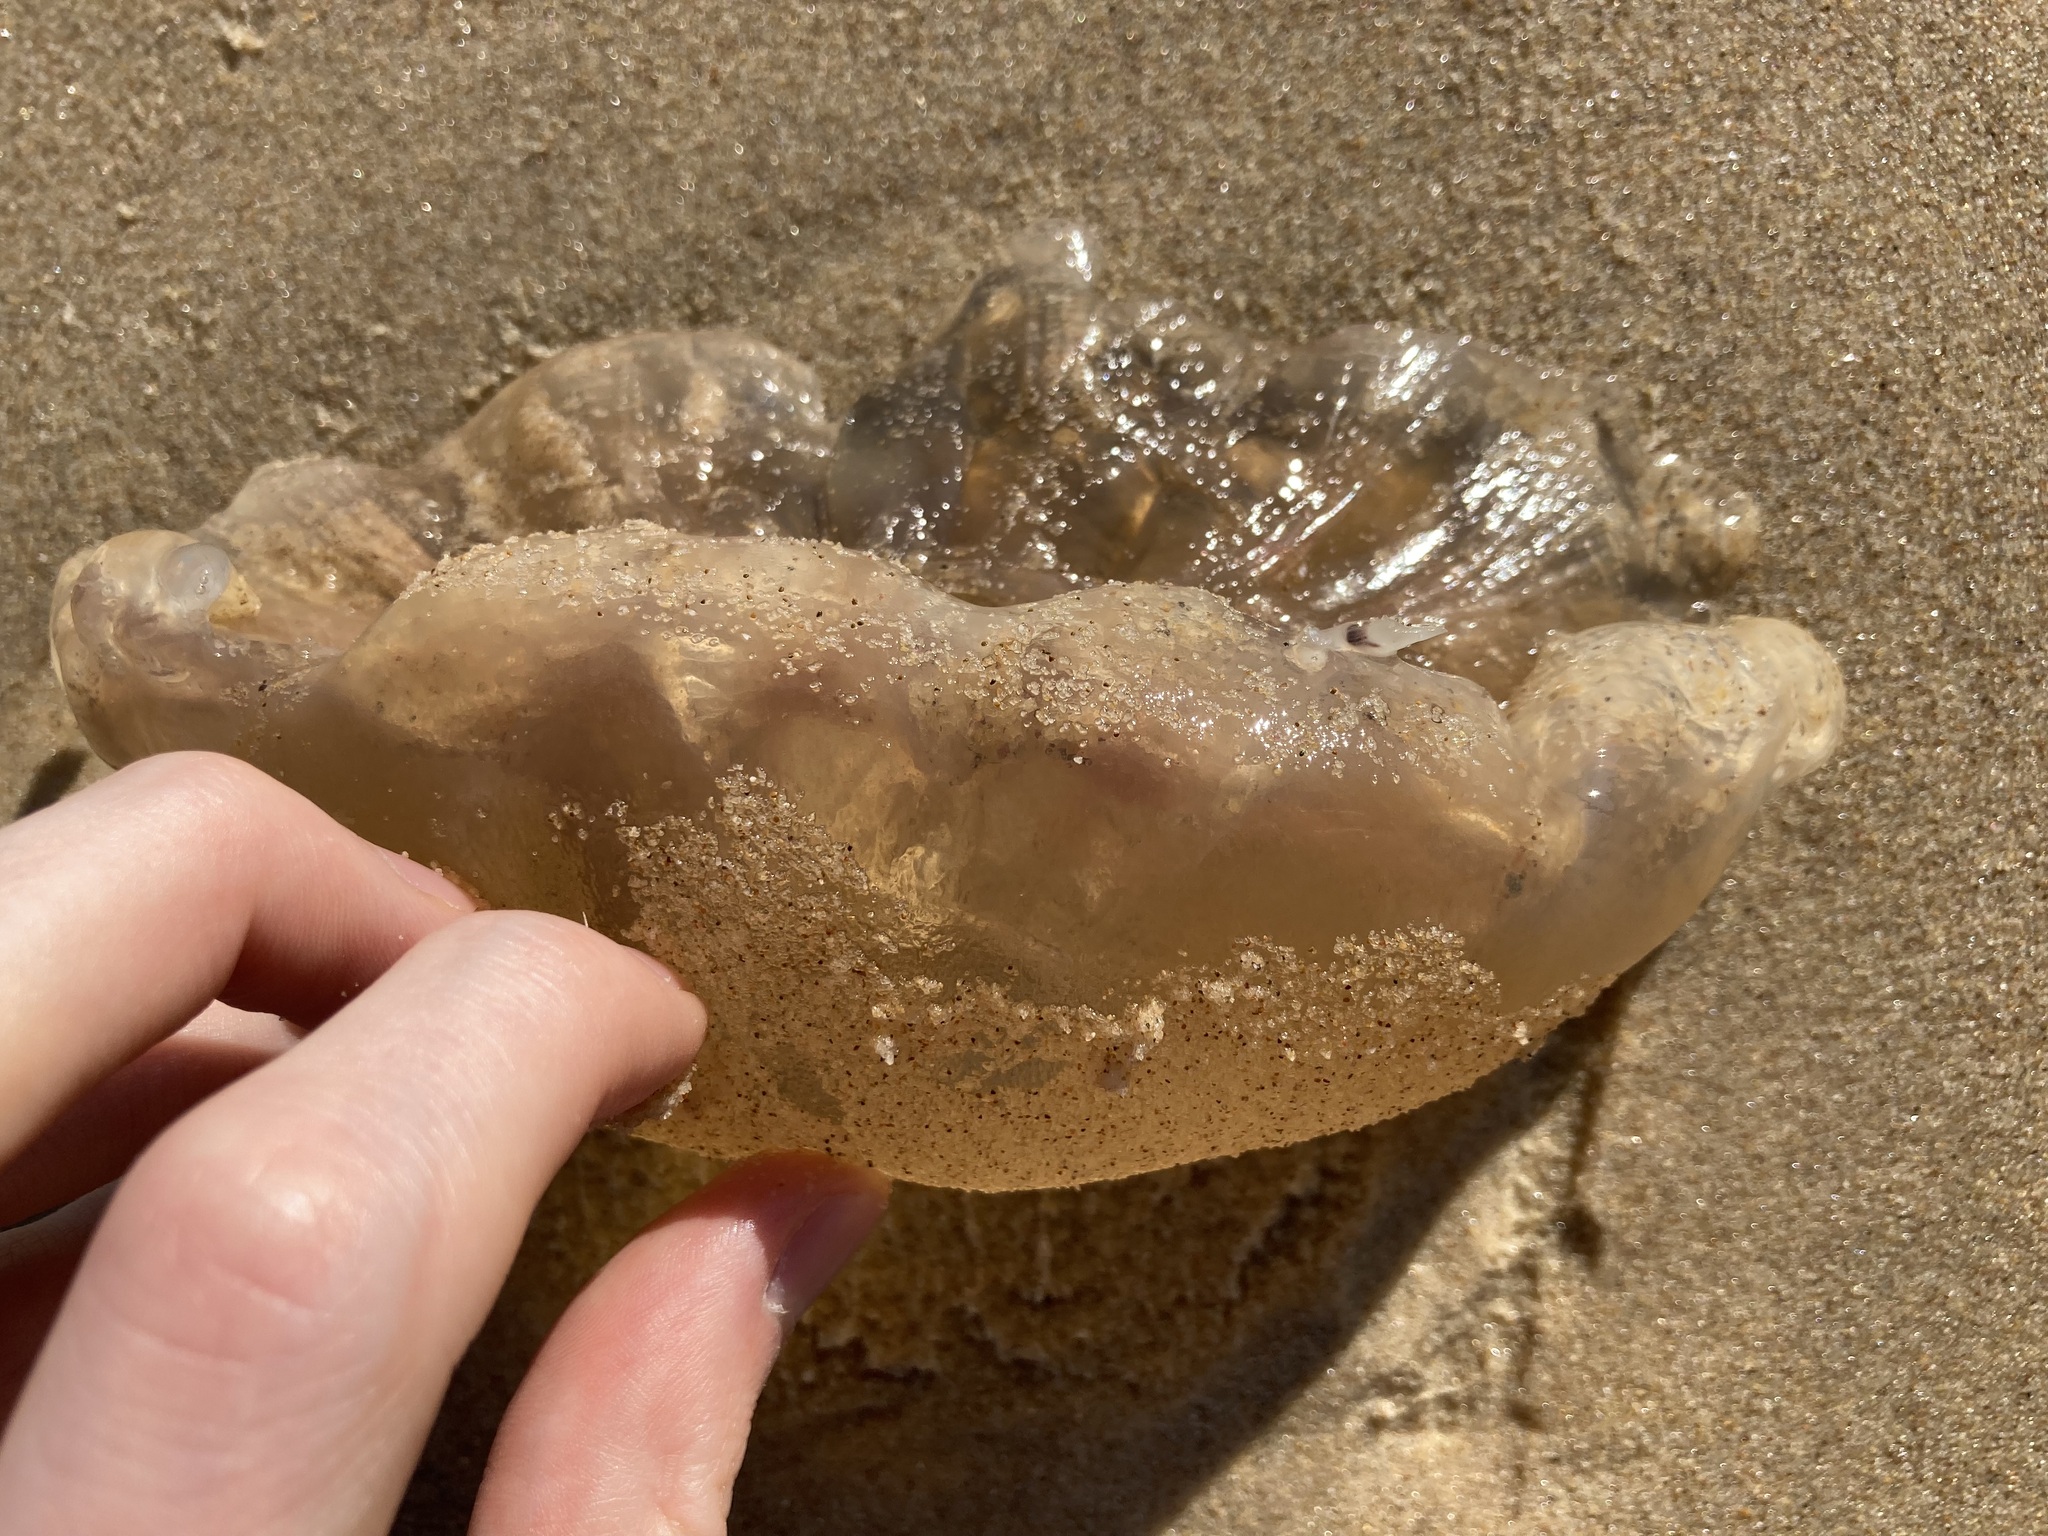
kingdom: Animalia
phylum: Cnidaria
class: Scyphozoa
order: Rhizostomeae
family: Catostylidae
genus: Catostylus
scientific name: Catostylus mosaicus
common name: Blue blubber
